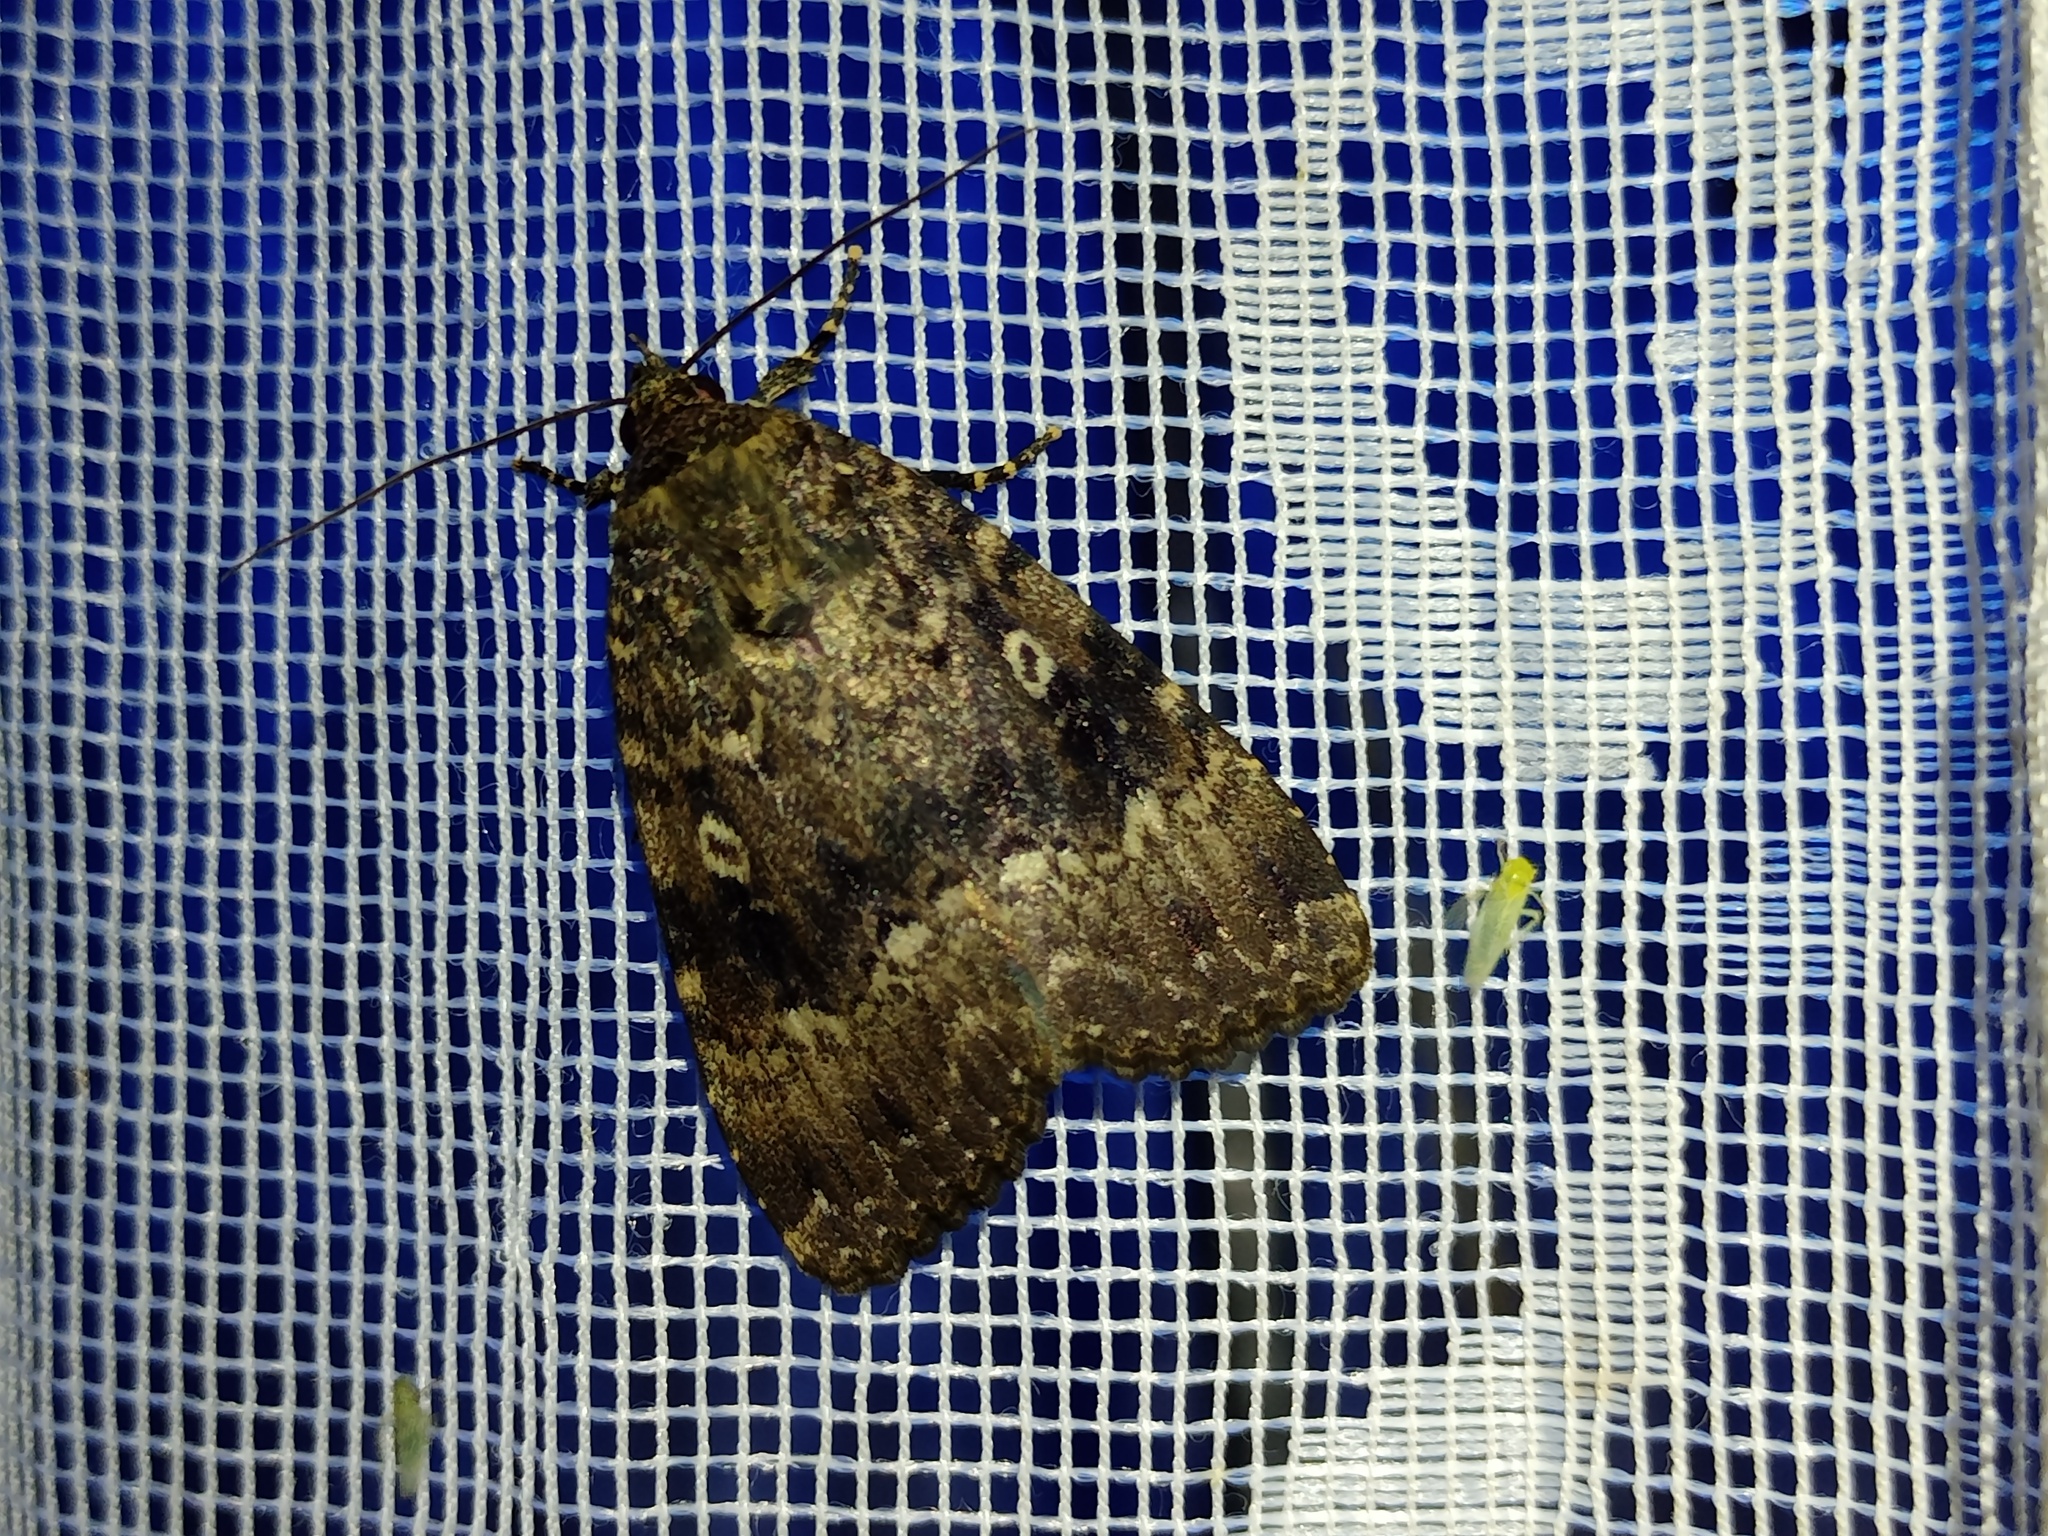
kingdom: Animalia
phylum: Arthropoda
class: Insecta
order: Lepidoptera
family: Noctuidae
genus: Amphipyra
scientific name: Amphipyra berbera
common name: Svensson's copper underwing
